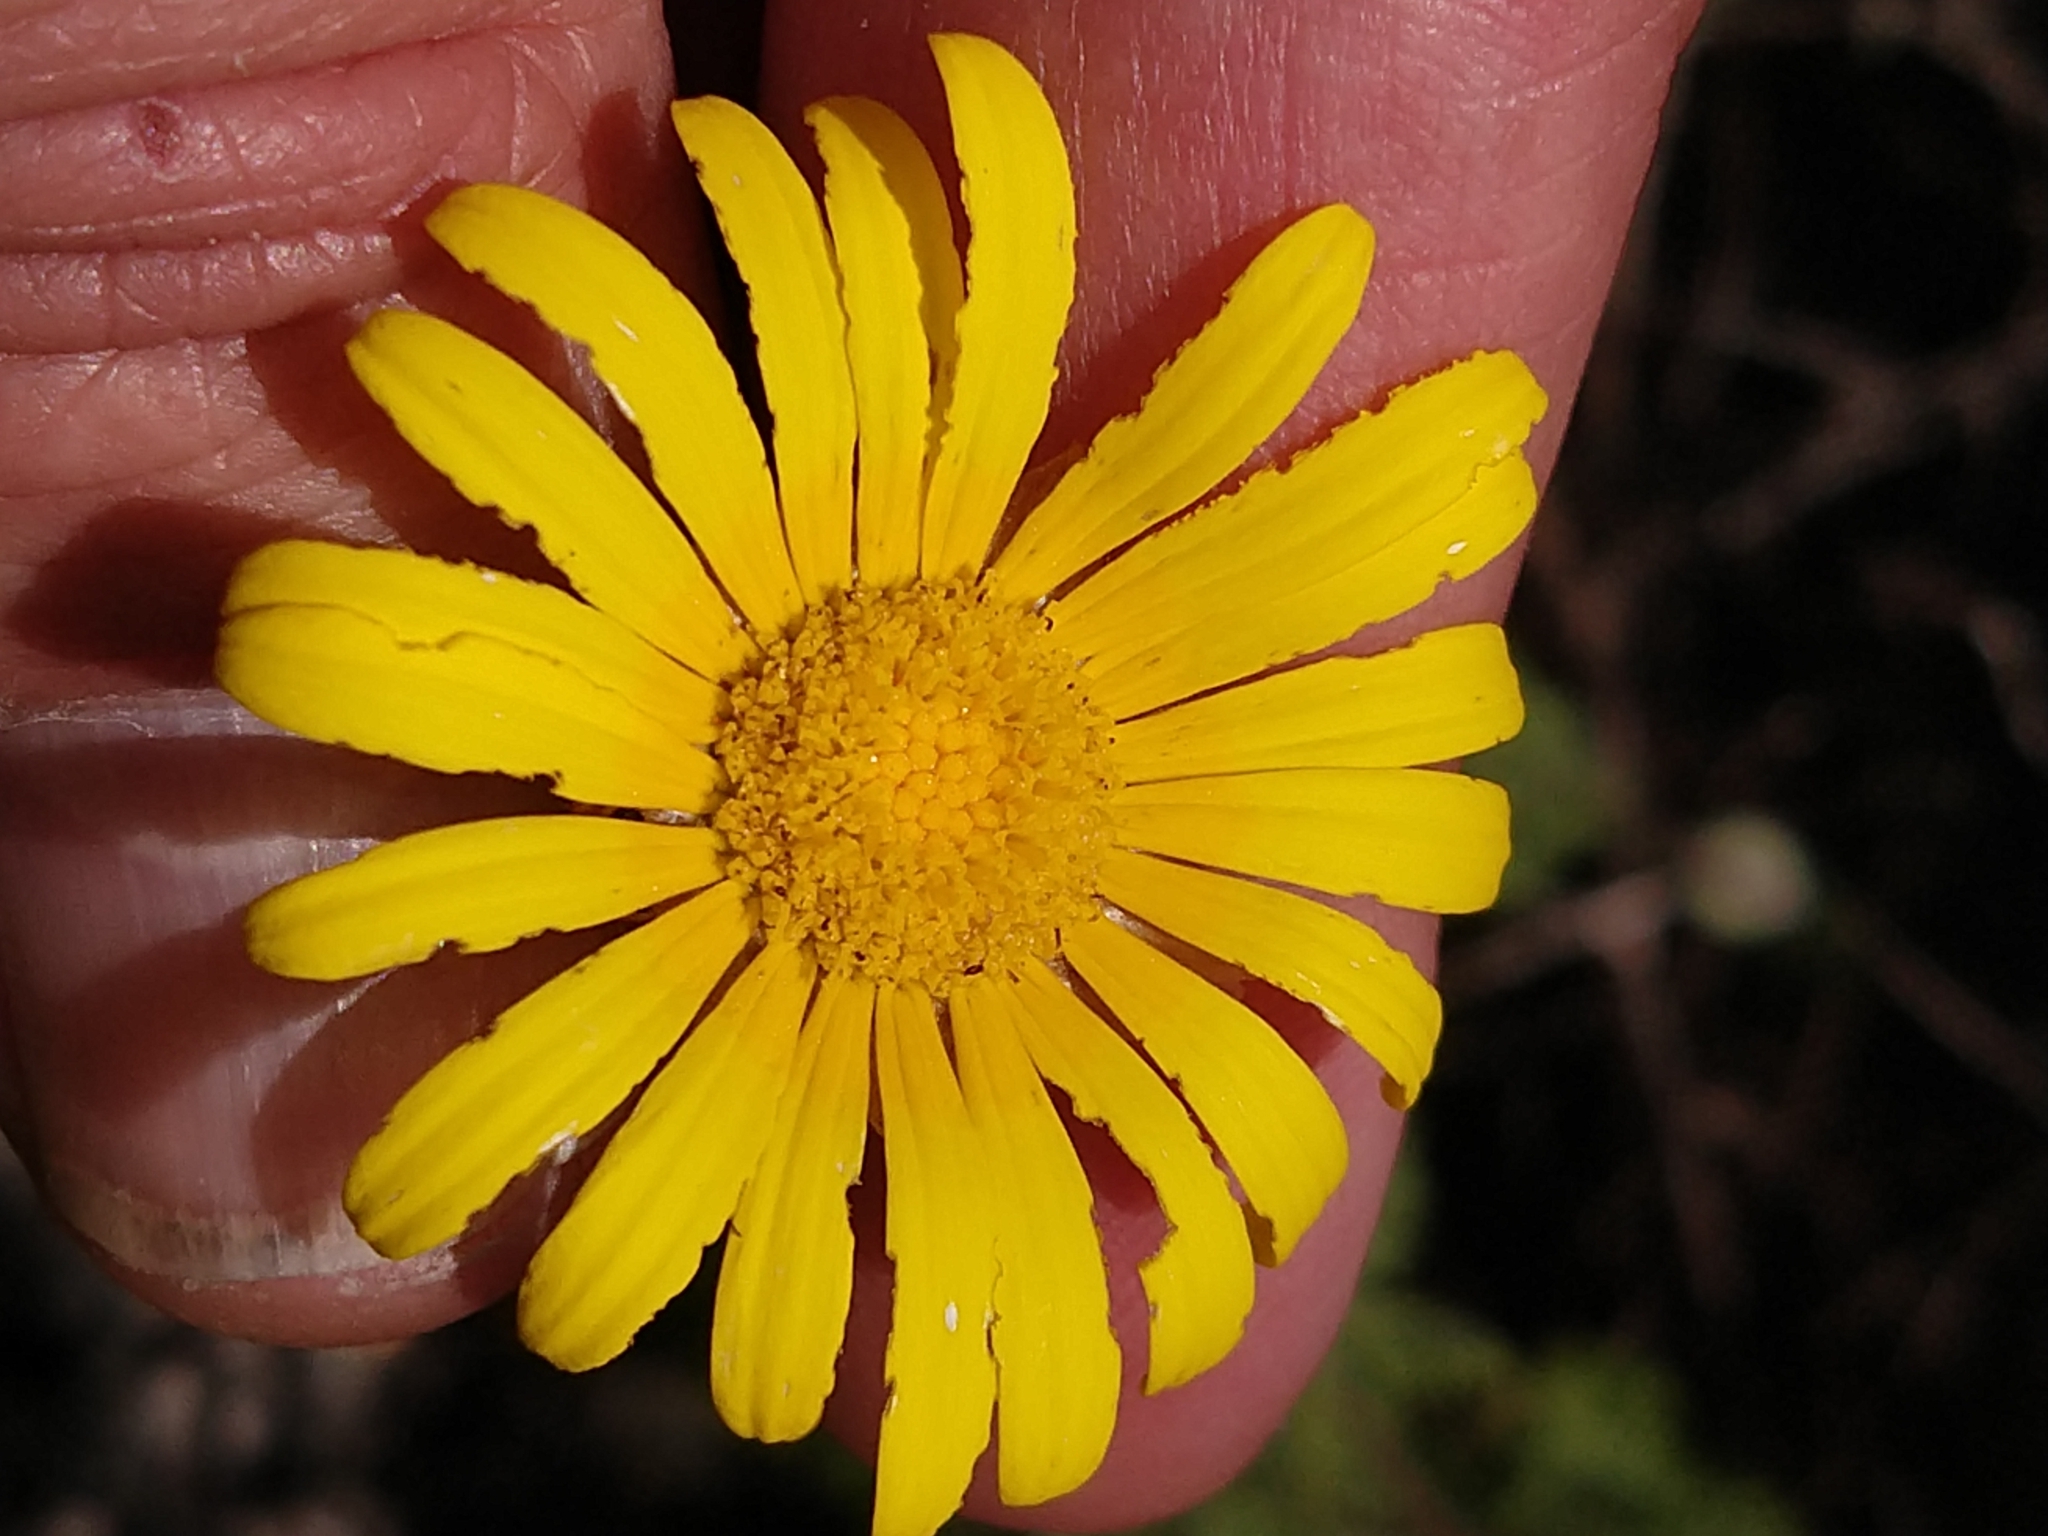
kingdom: Plantae
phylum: Tracheophyta
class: Magnoliopsida
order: Asterales
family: Asteraceae
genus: Ursinia
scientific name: Ursinia
